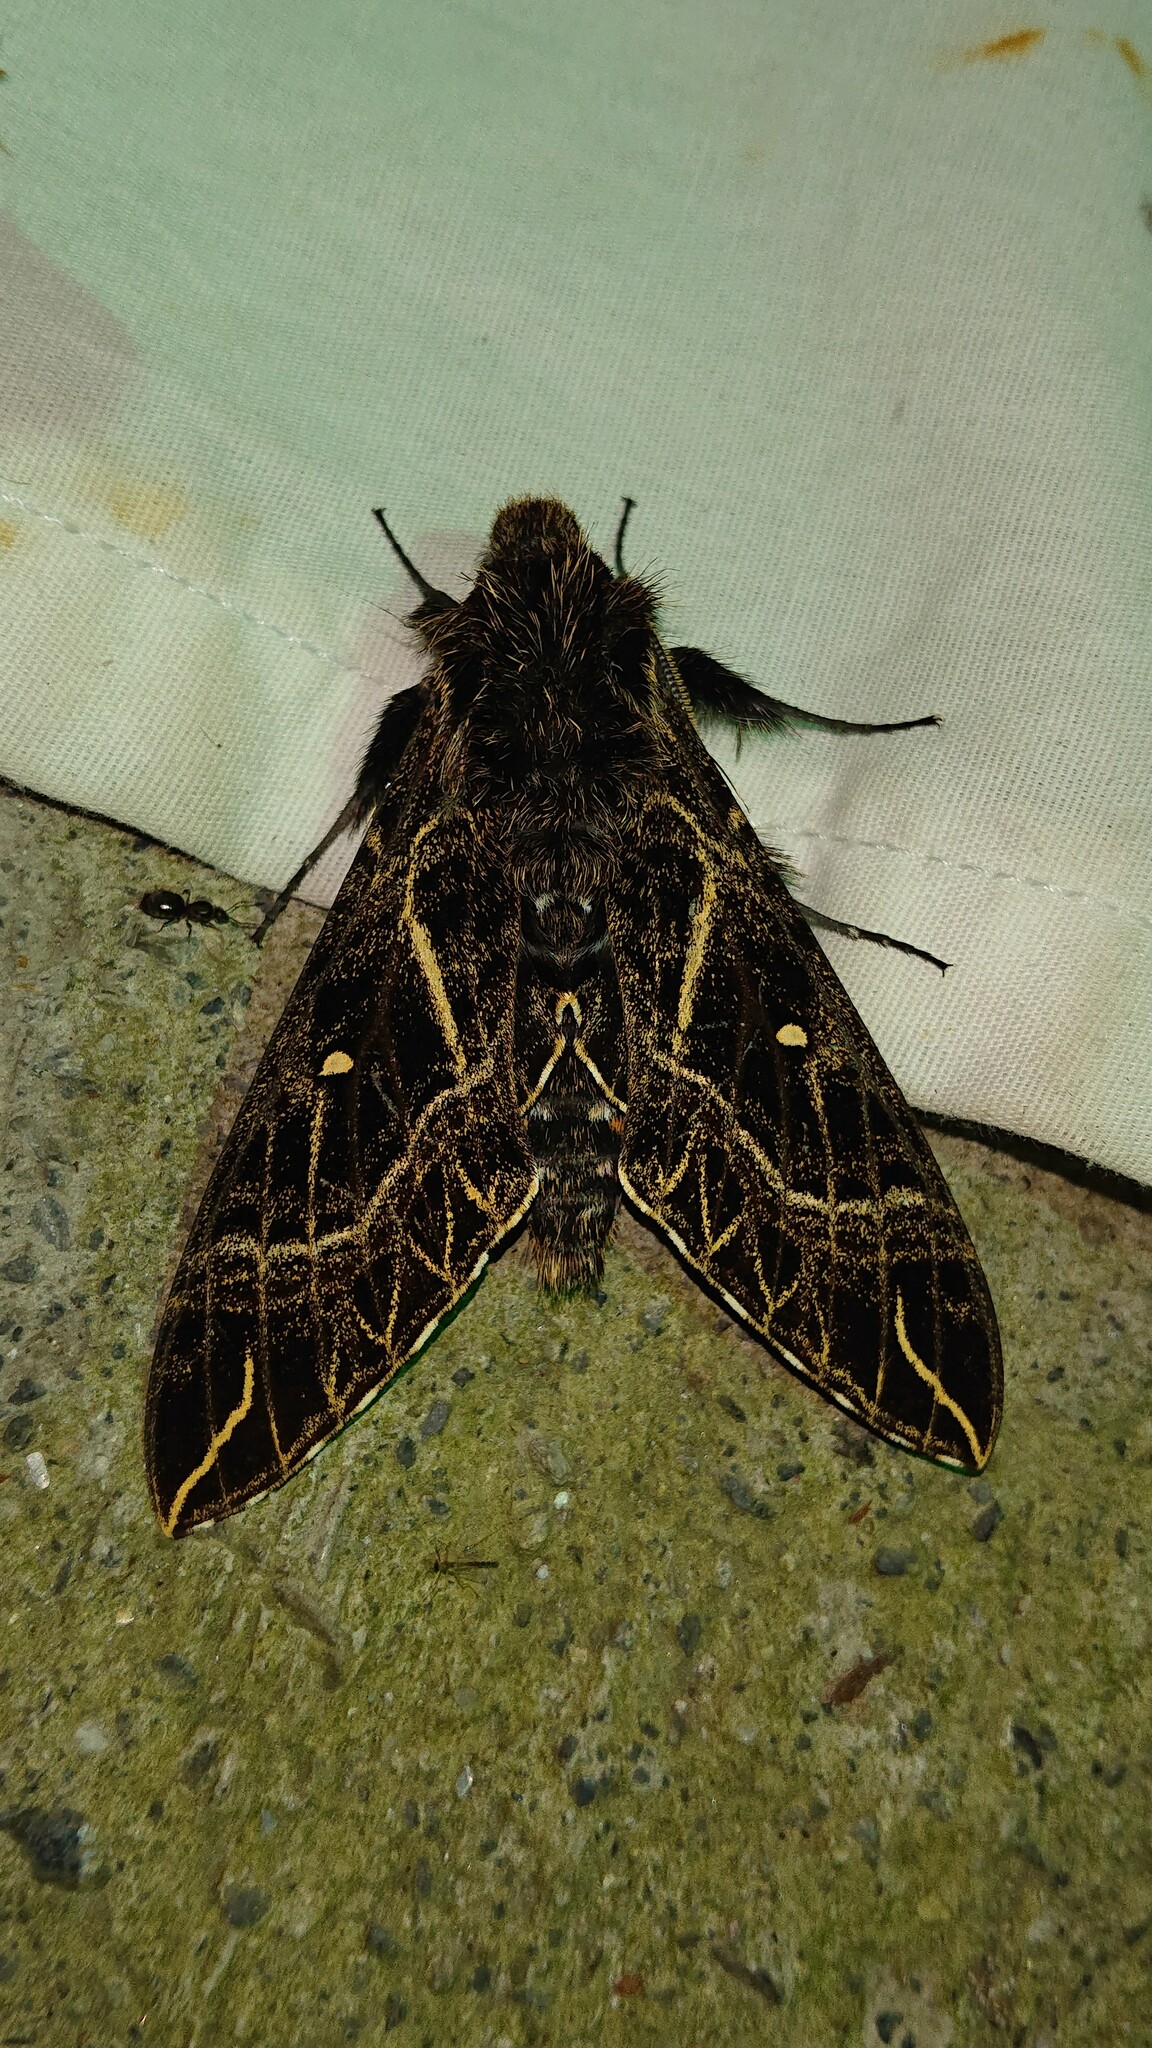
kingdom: Animalia
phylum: Arthropoda
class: Insecta
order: Lepidoptera
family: Sphingidae
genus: Euryglottis
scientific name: Euryglottis aper
